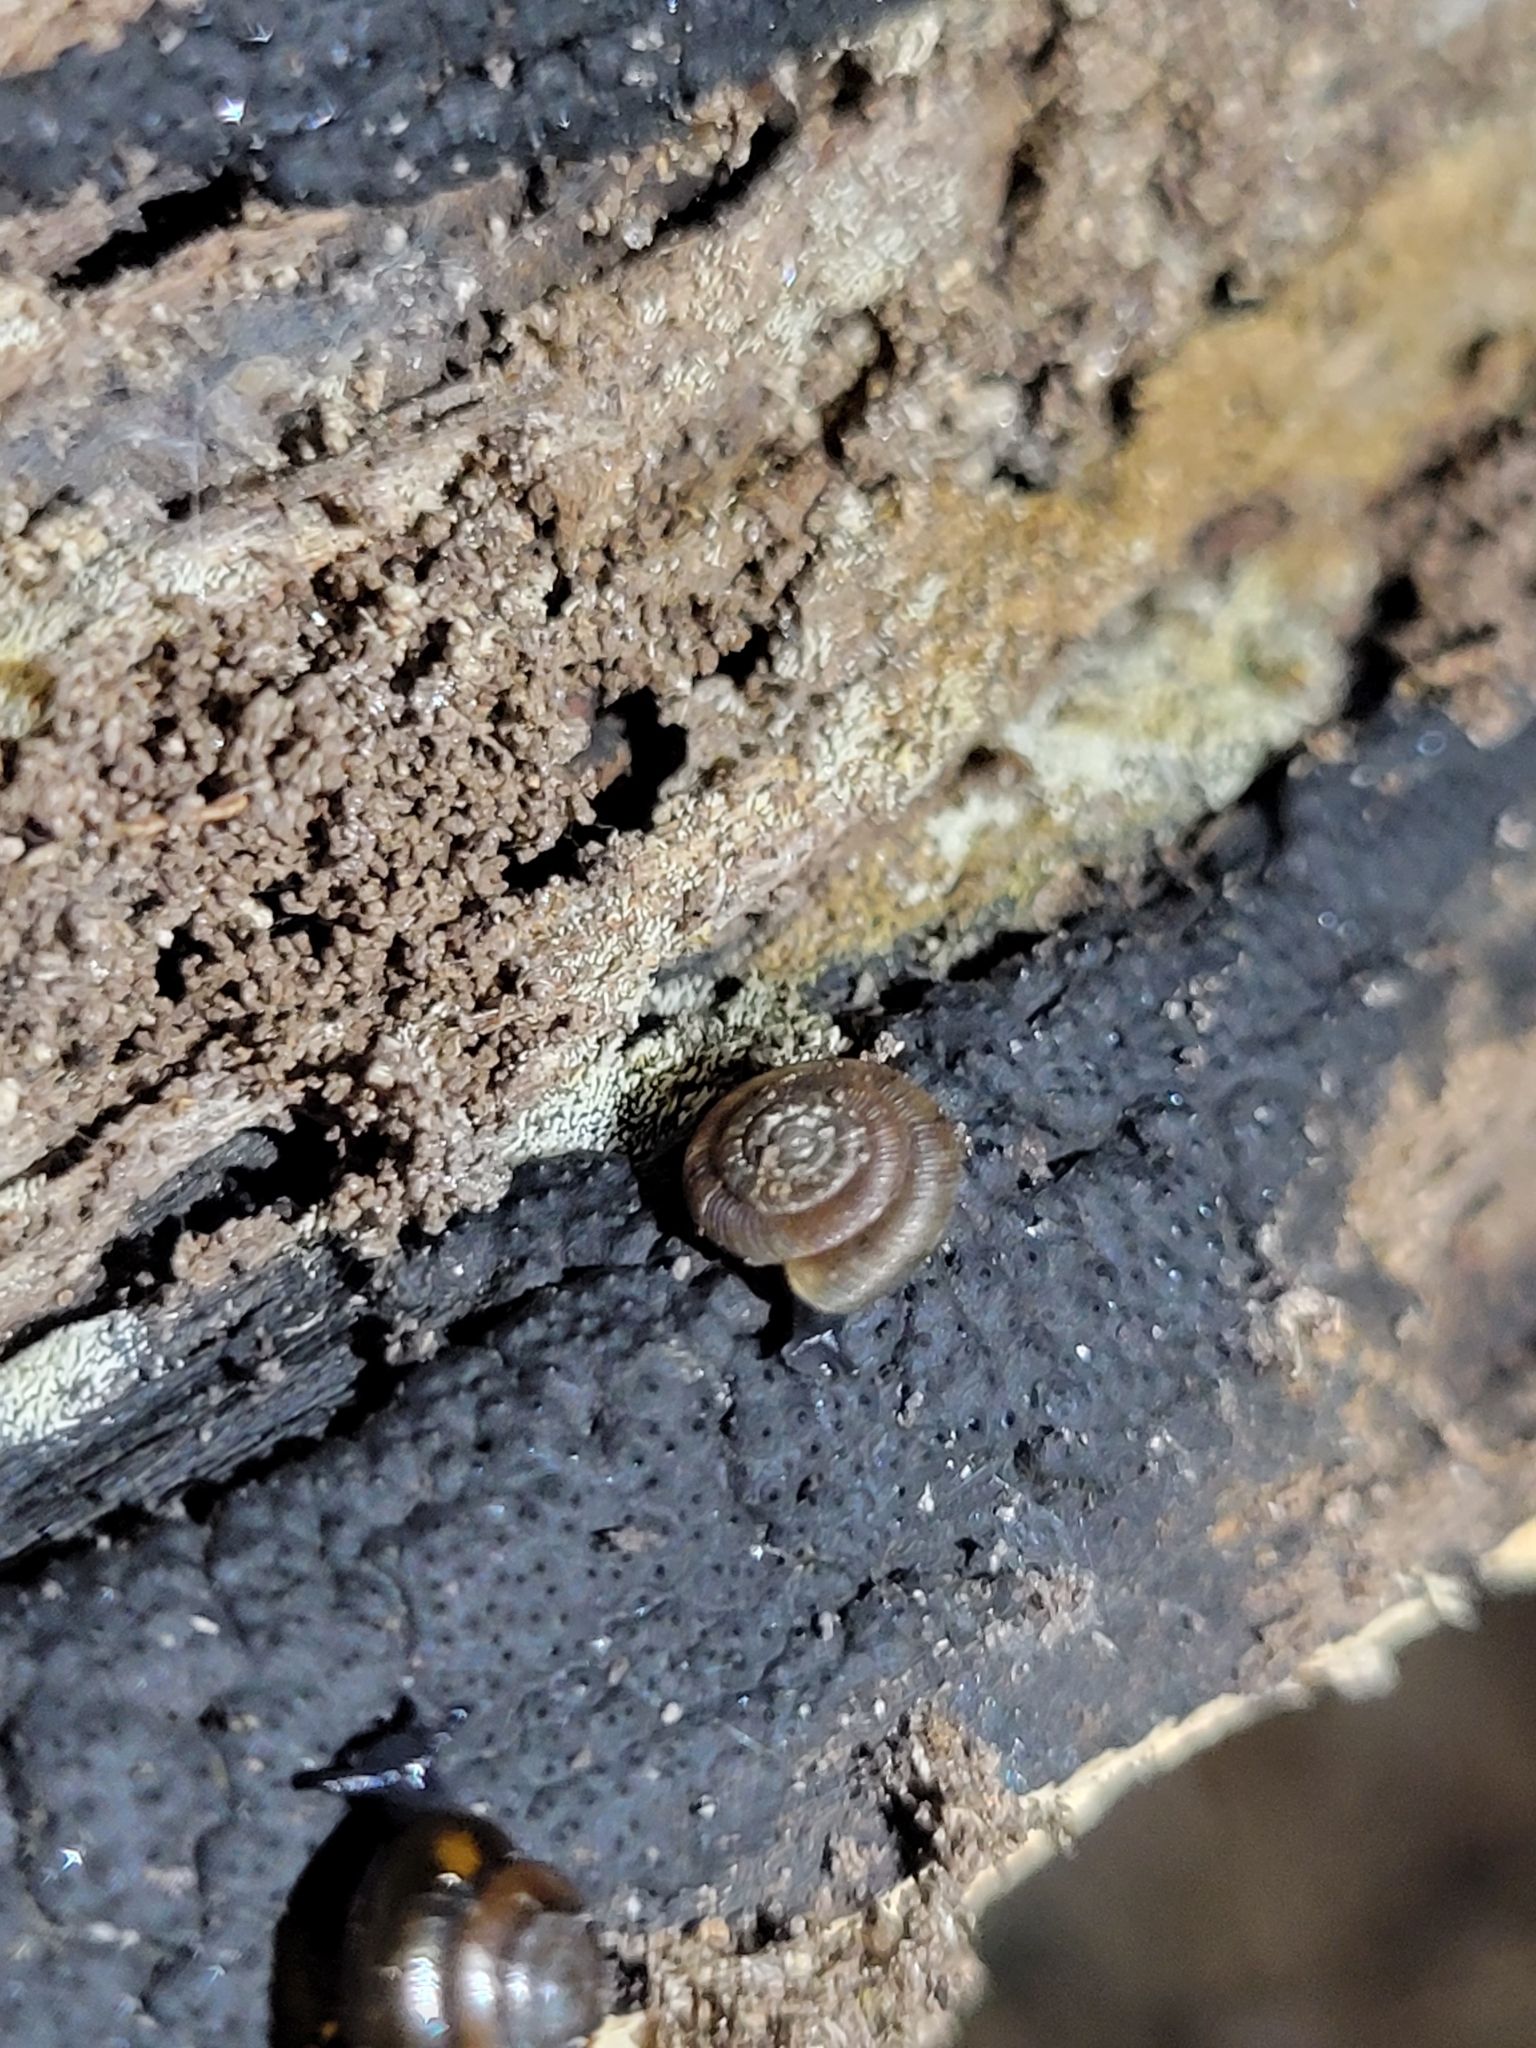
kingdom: Animalia
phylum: Mollusca
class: Gastropoda
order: Stylommatophora
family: Discidae
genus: Discus
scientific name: Discus rotundatus
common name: Rounded snail
